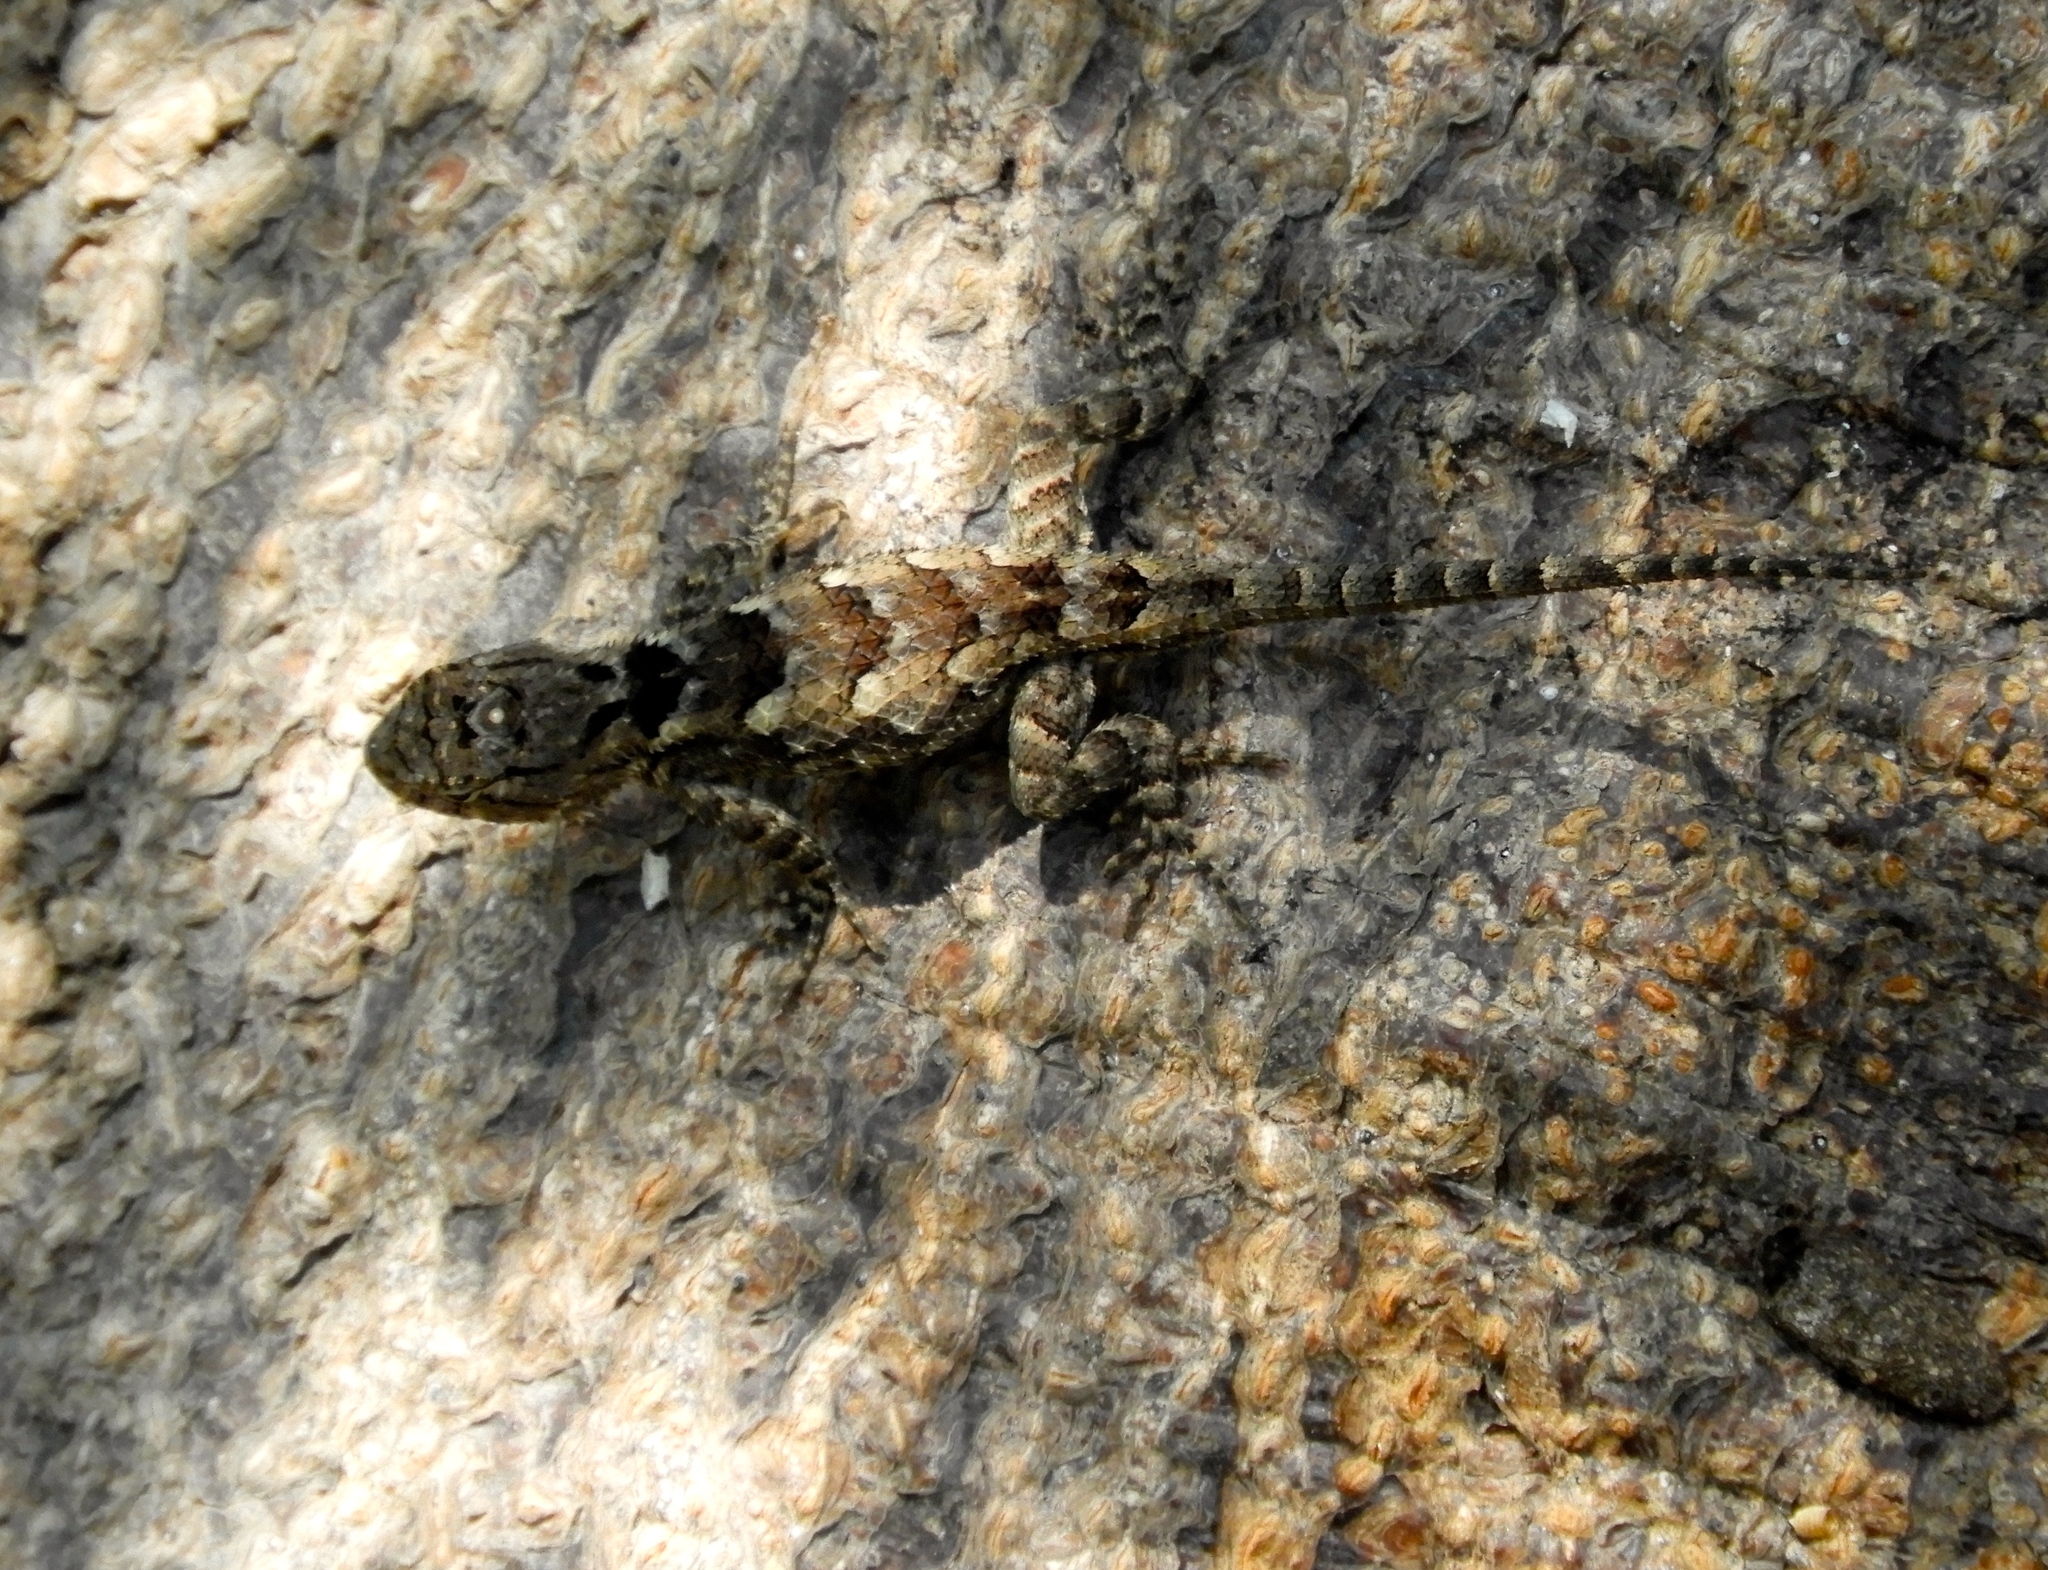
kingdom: Animalia
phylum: Chordata
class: Squamata
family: Phrynosomatidae
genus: Sceloporus
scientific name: Sceloporus clarkii
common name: Clark's spiny lizard
